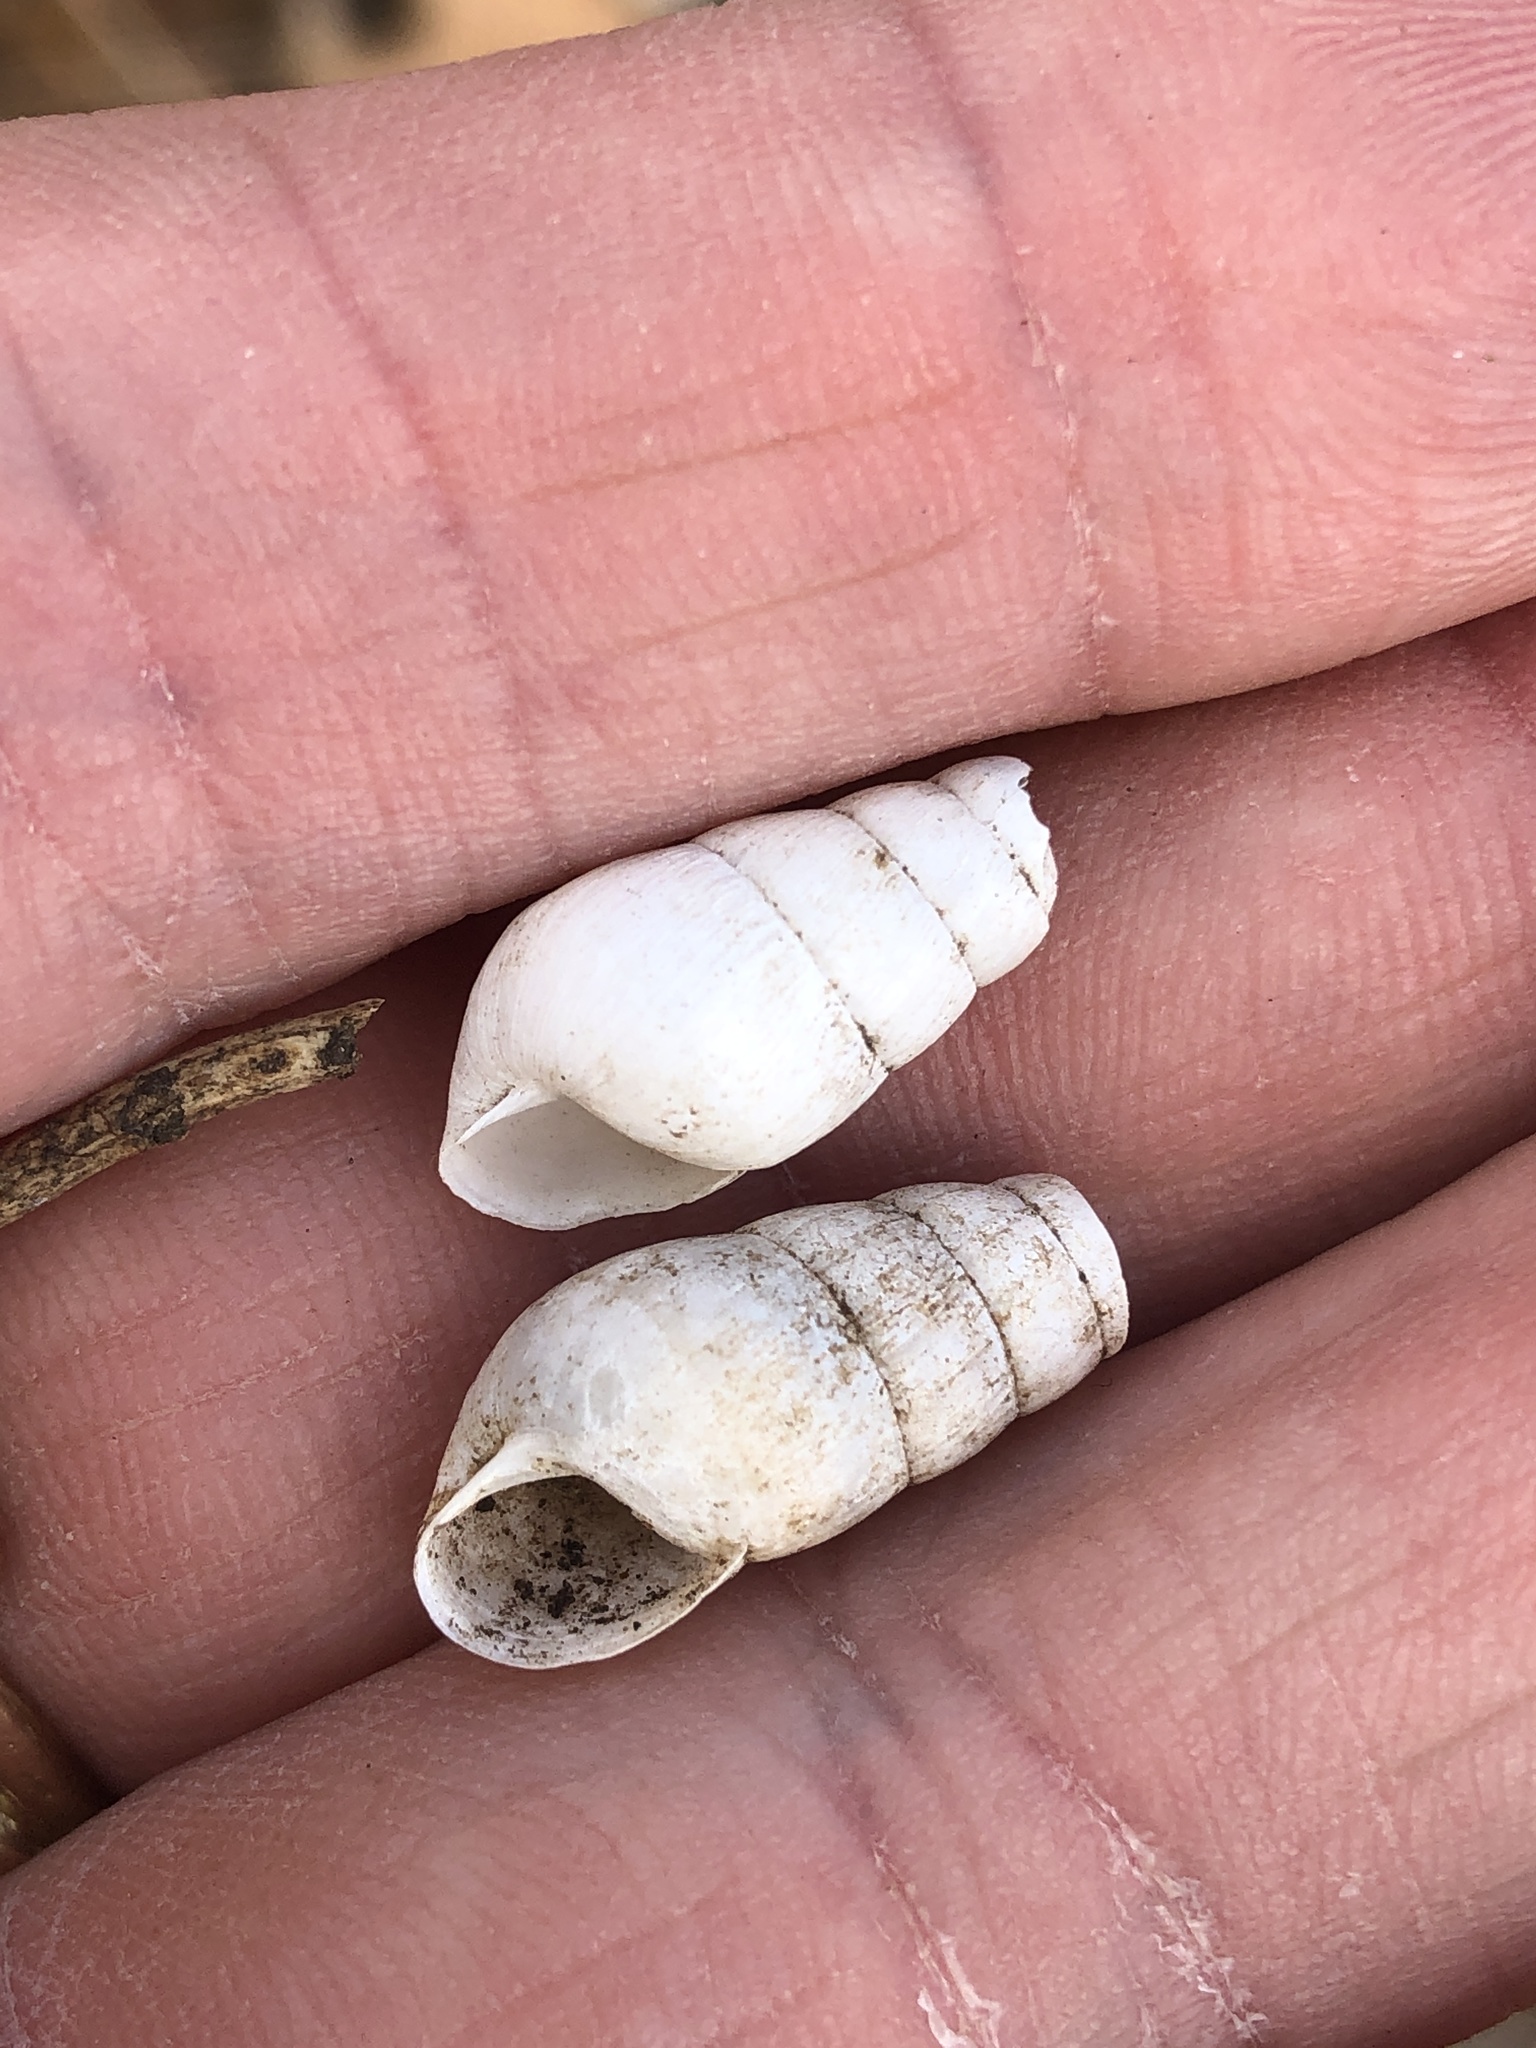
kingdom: Animalia
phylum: Mollusca
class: Gastropoda
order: Stylommatophora
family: Achatinidae
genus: Rumina
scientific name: Rumina decollata
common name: Decollate snail
